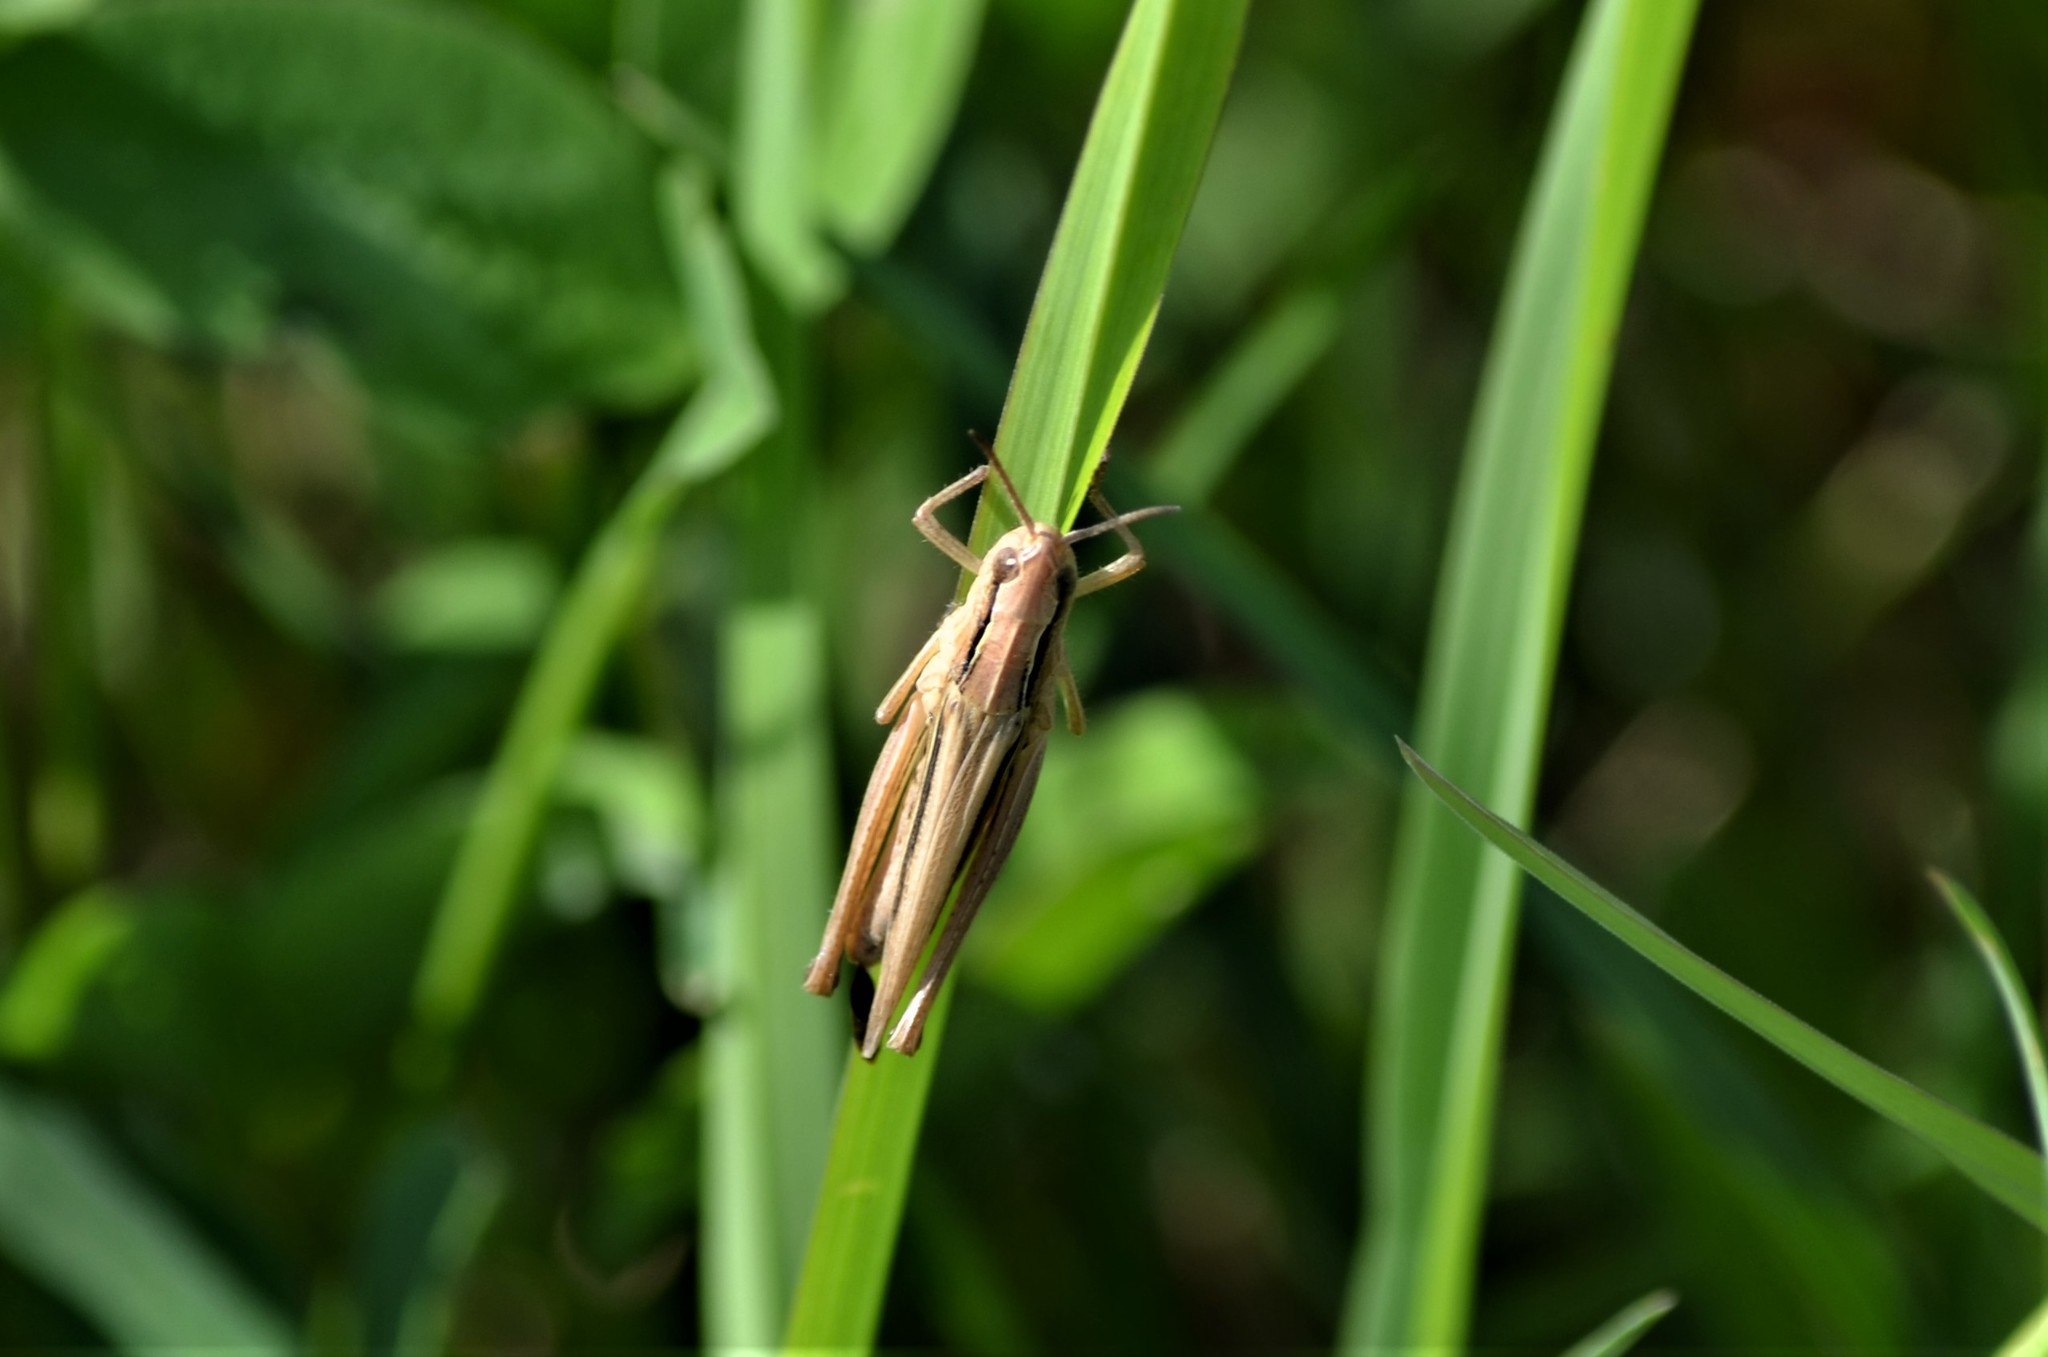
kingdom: Animalia
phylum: Arthropoda
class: Insecta
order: Orthoptera
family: Acrididae
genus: Chorthippus
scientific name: Chorthippus albomarginatus
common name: Lesser marsh grasshopper
